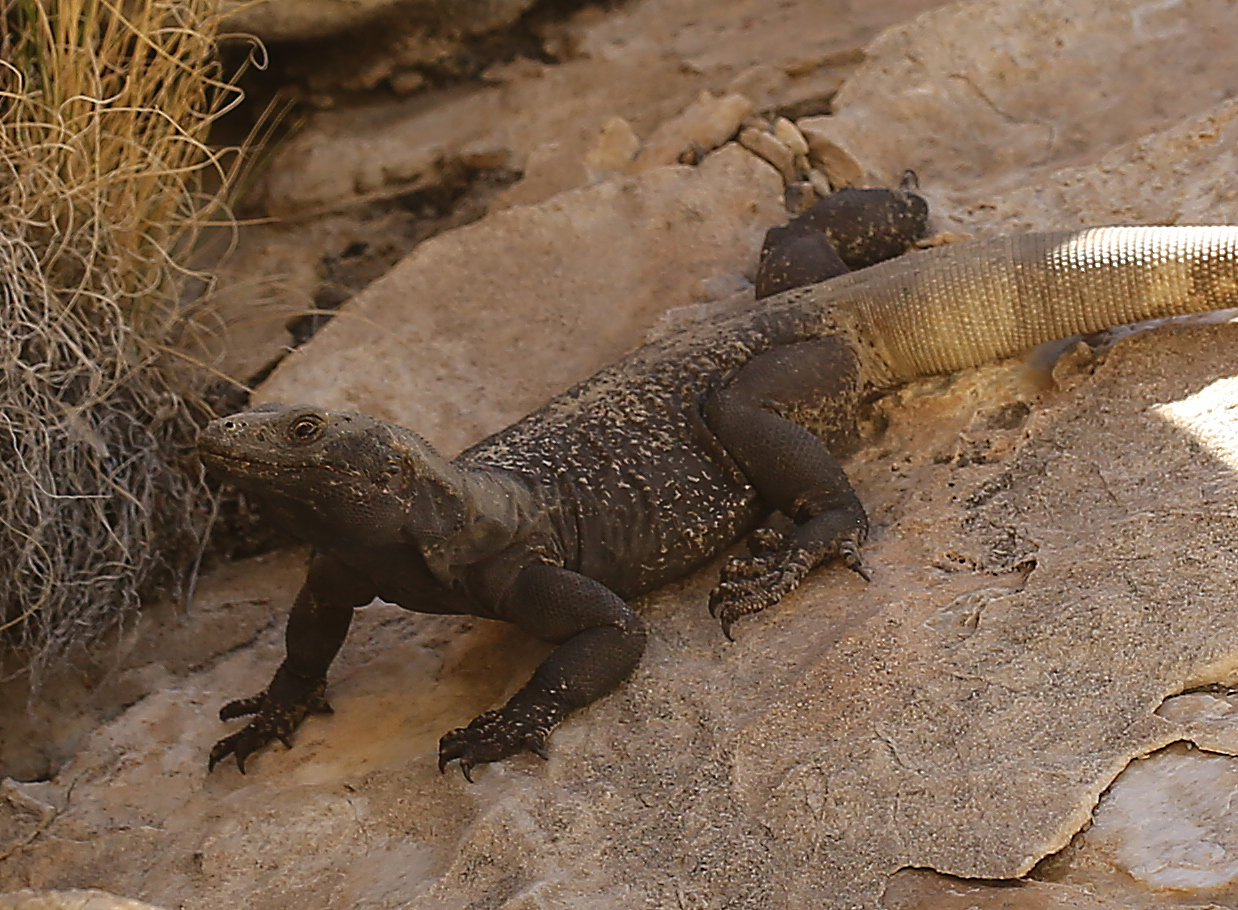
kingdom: Animalia
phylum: Chordata
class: Squamata
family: Iguanidae
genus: Sauromalus
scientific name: Sauromalus ater
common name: Northern chuckwalla
